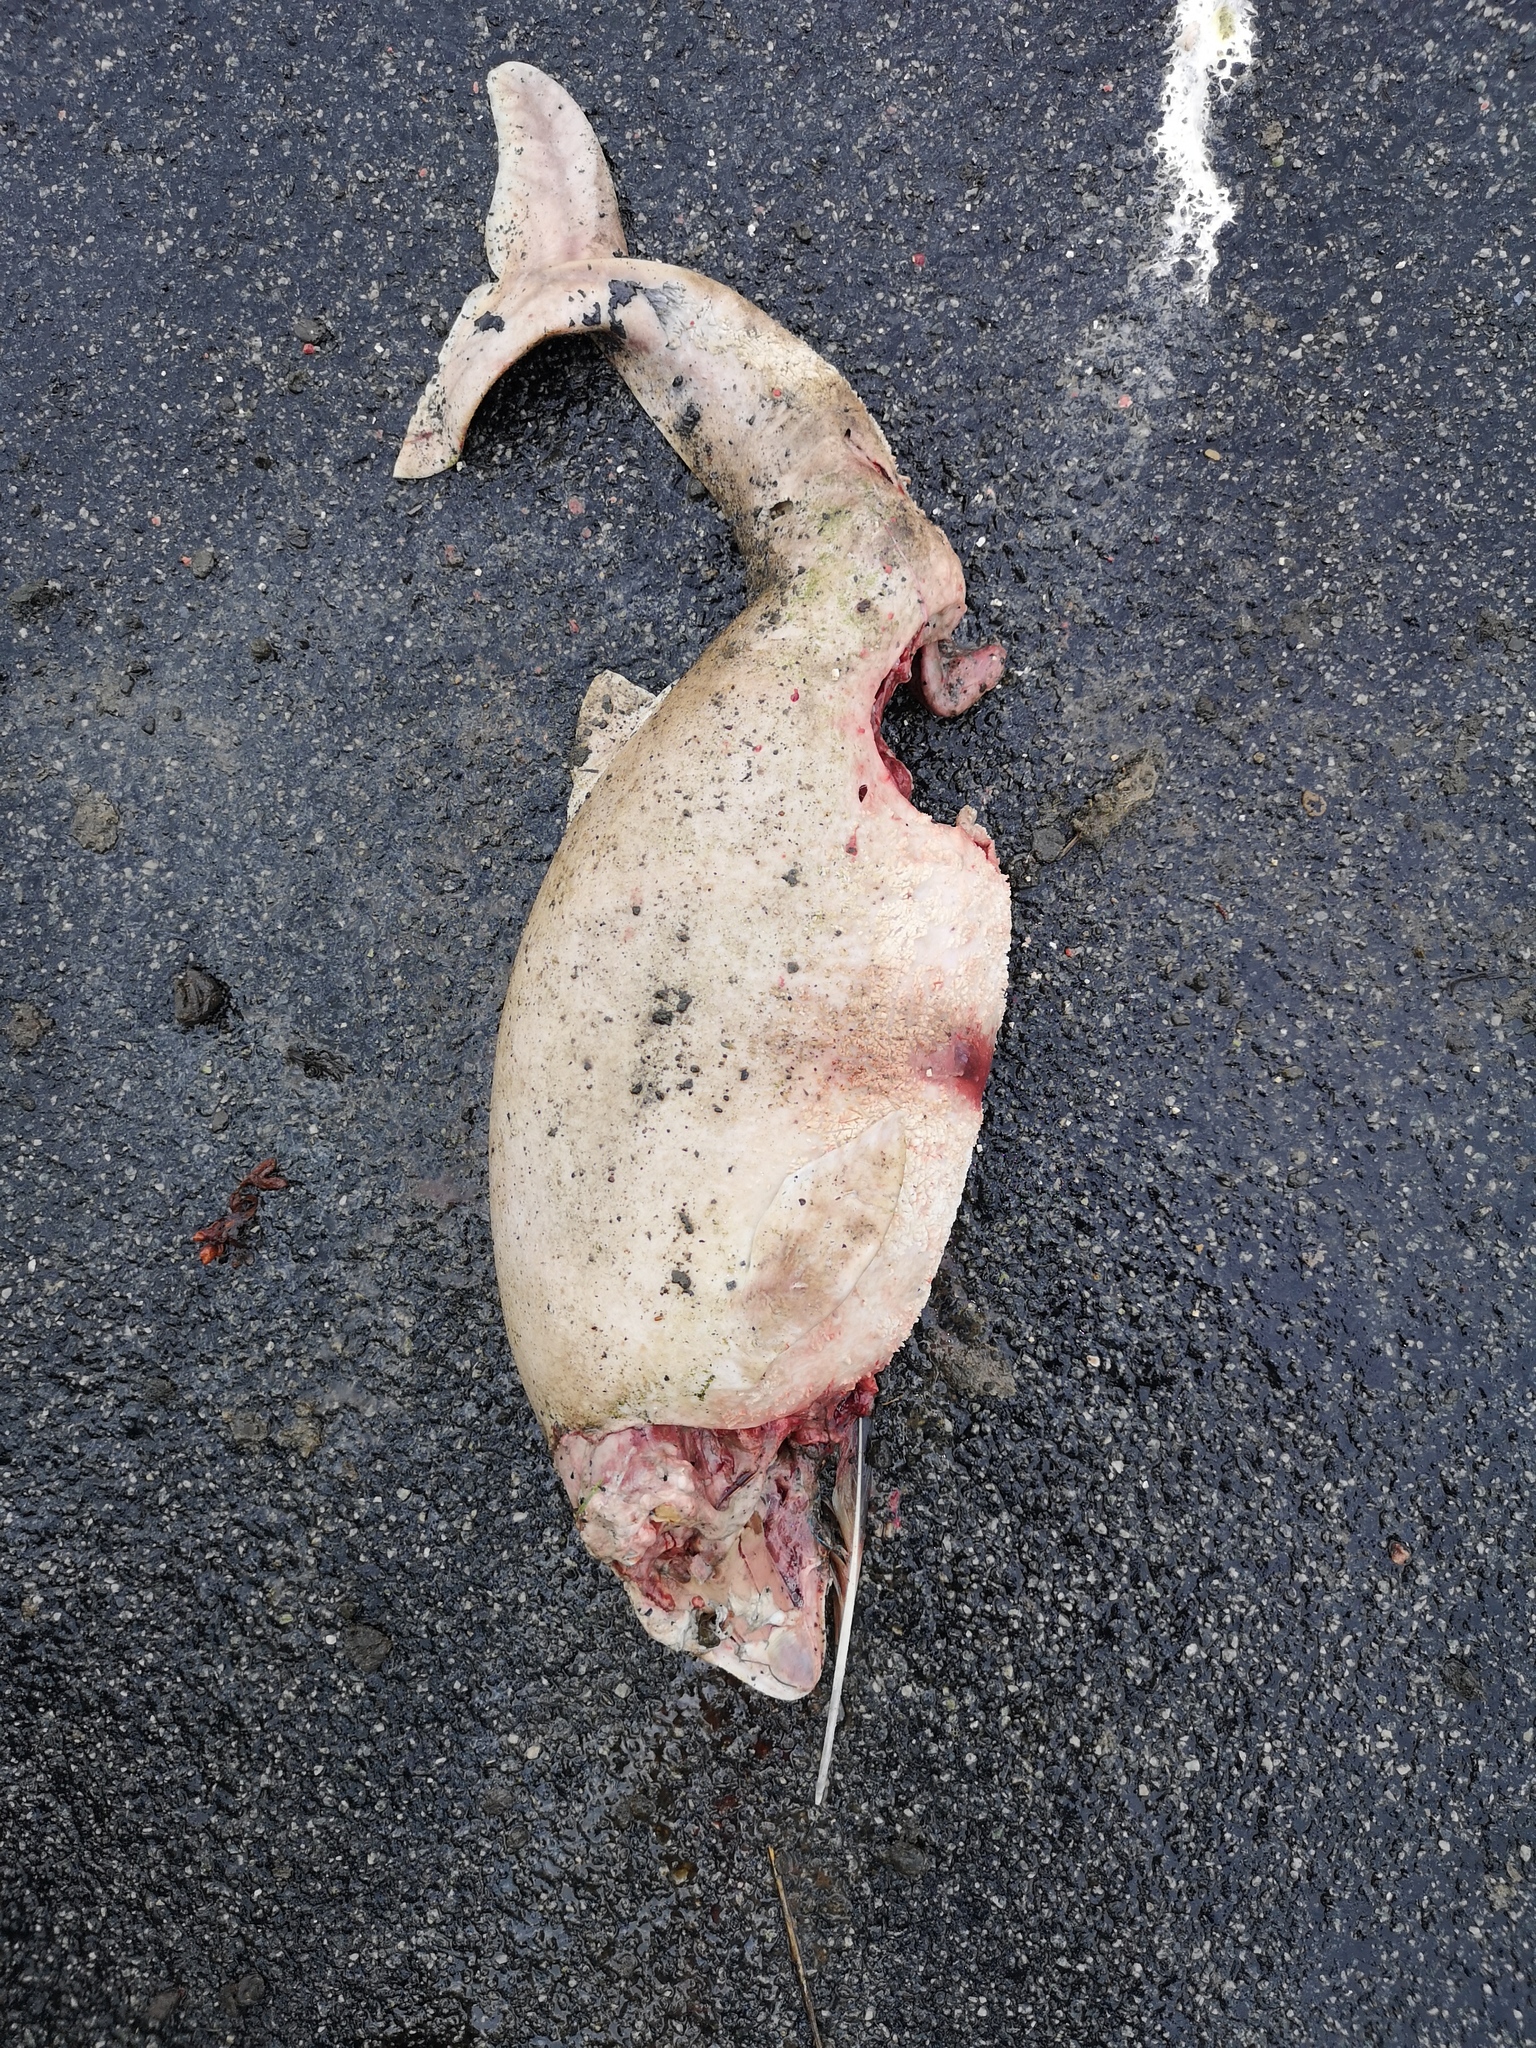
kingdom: Animalia
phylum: Chordata
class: Mammalia
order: Cetacea
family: Phocoenidae
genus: Phocoena
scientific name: Phocoena phocoena
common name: Harbor porpoise
